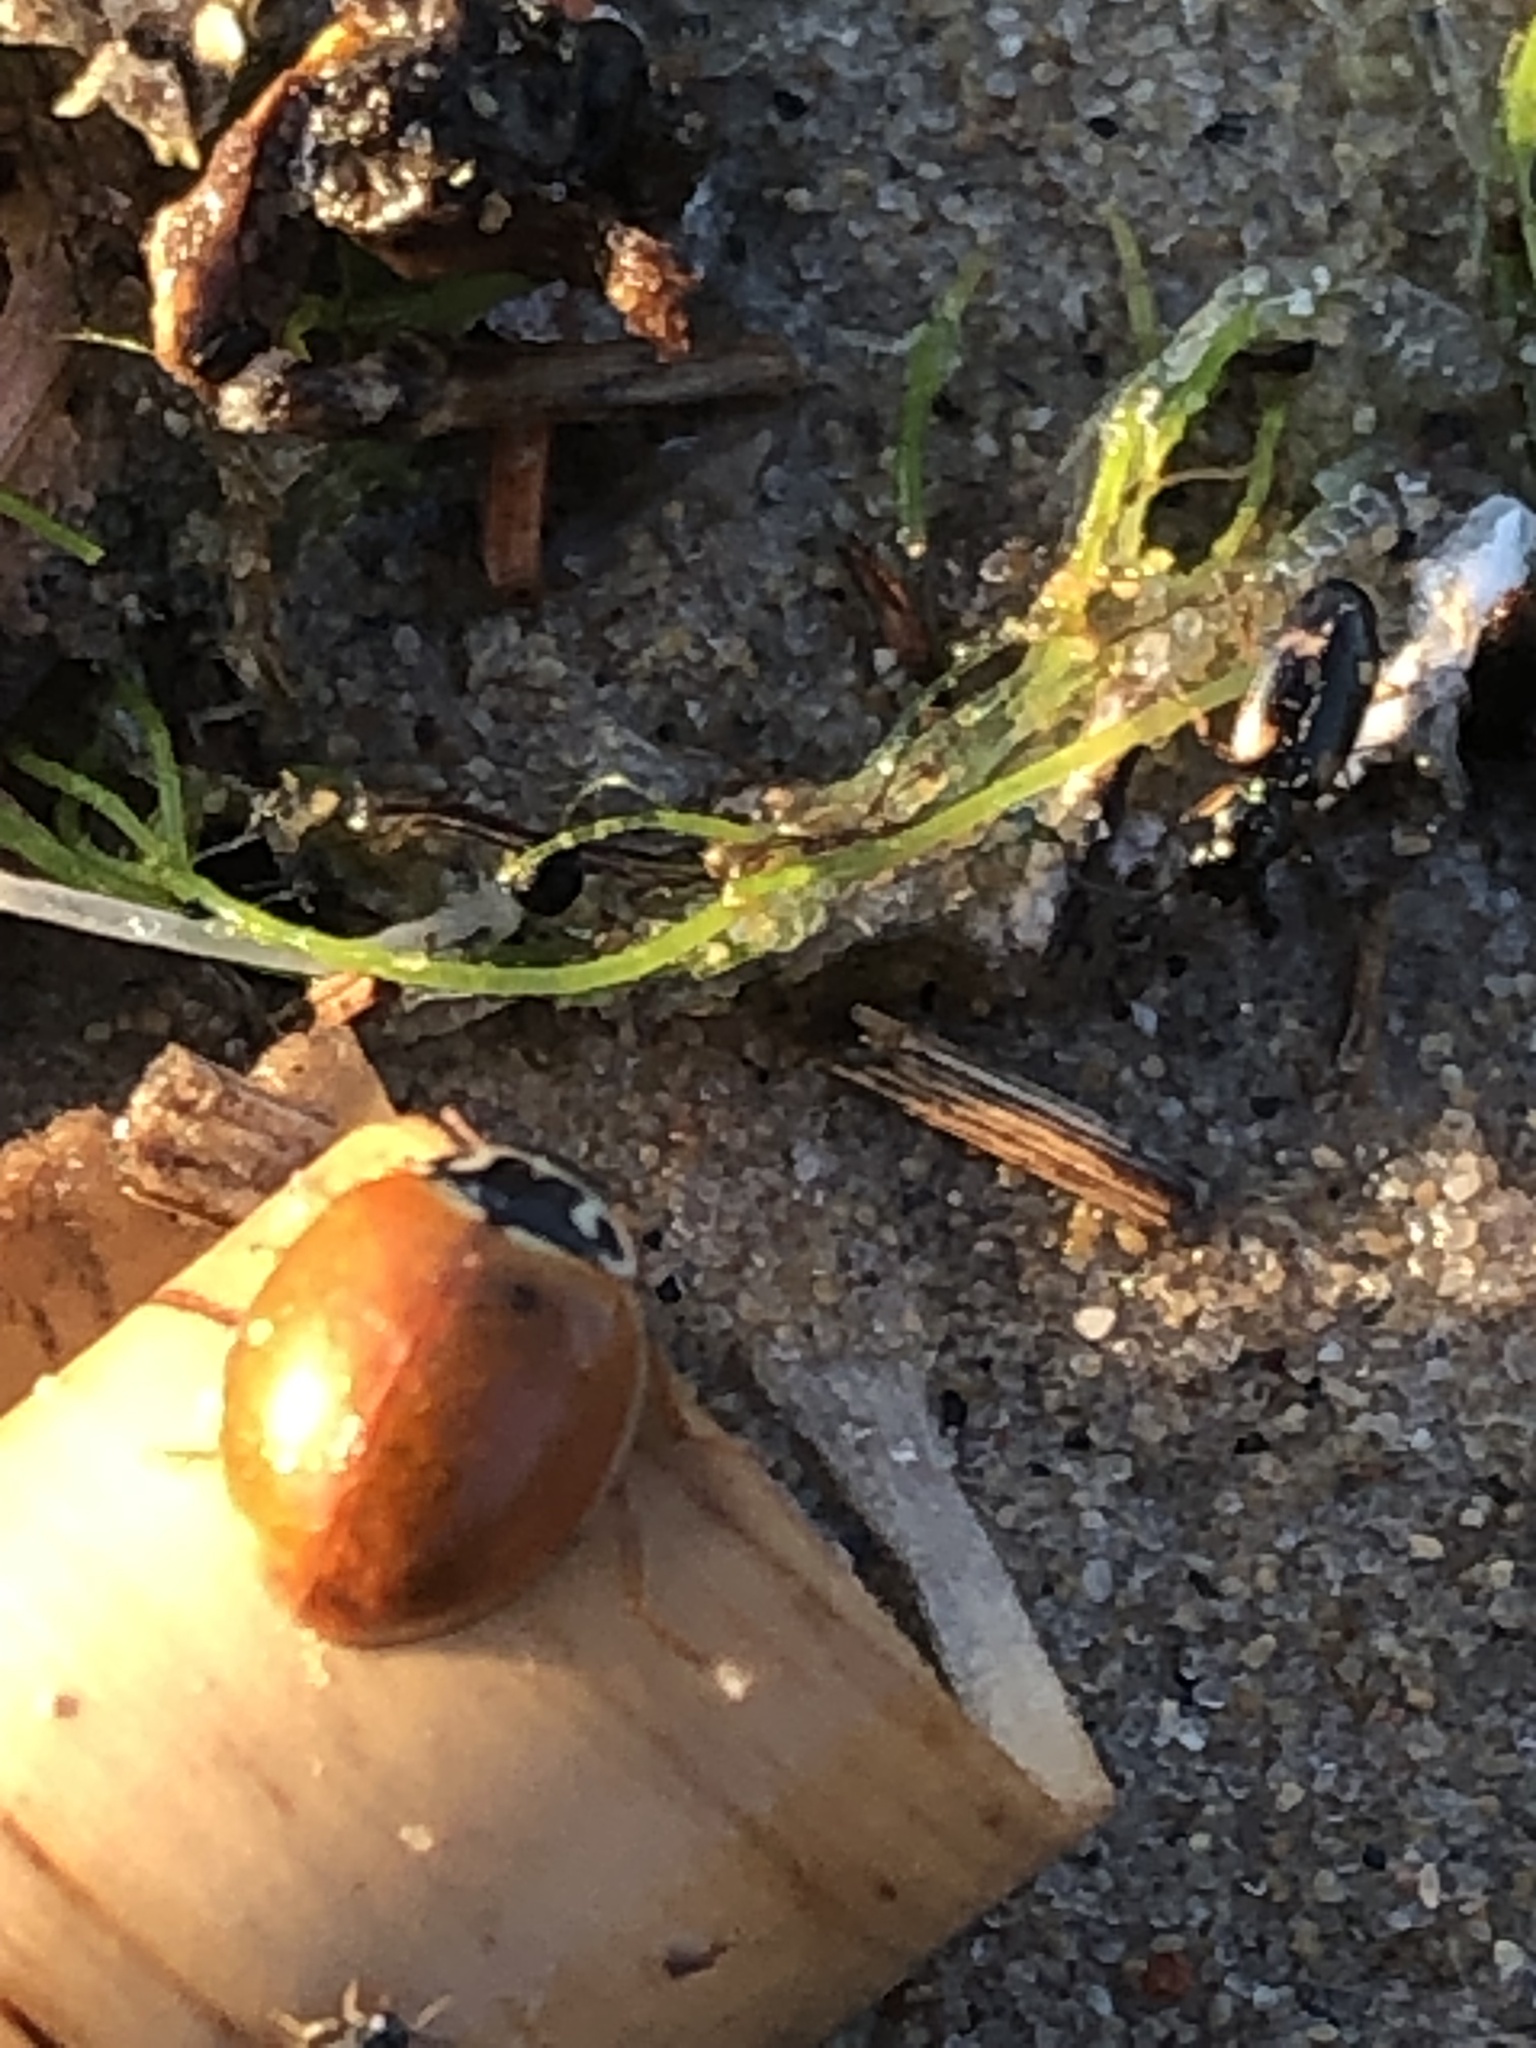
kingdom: Animalia
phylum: Arthropoda
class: Insecta
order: Coleoptera
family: Coccinellidae
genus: Cycloneda
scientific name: Cycloneda munda
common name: Polished lady beetle
